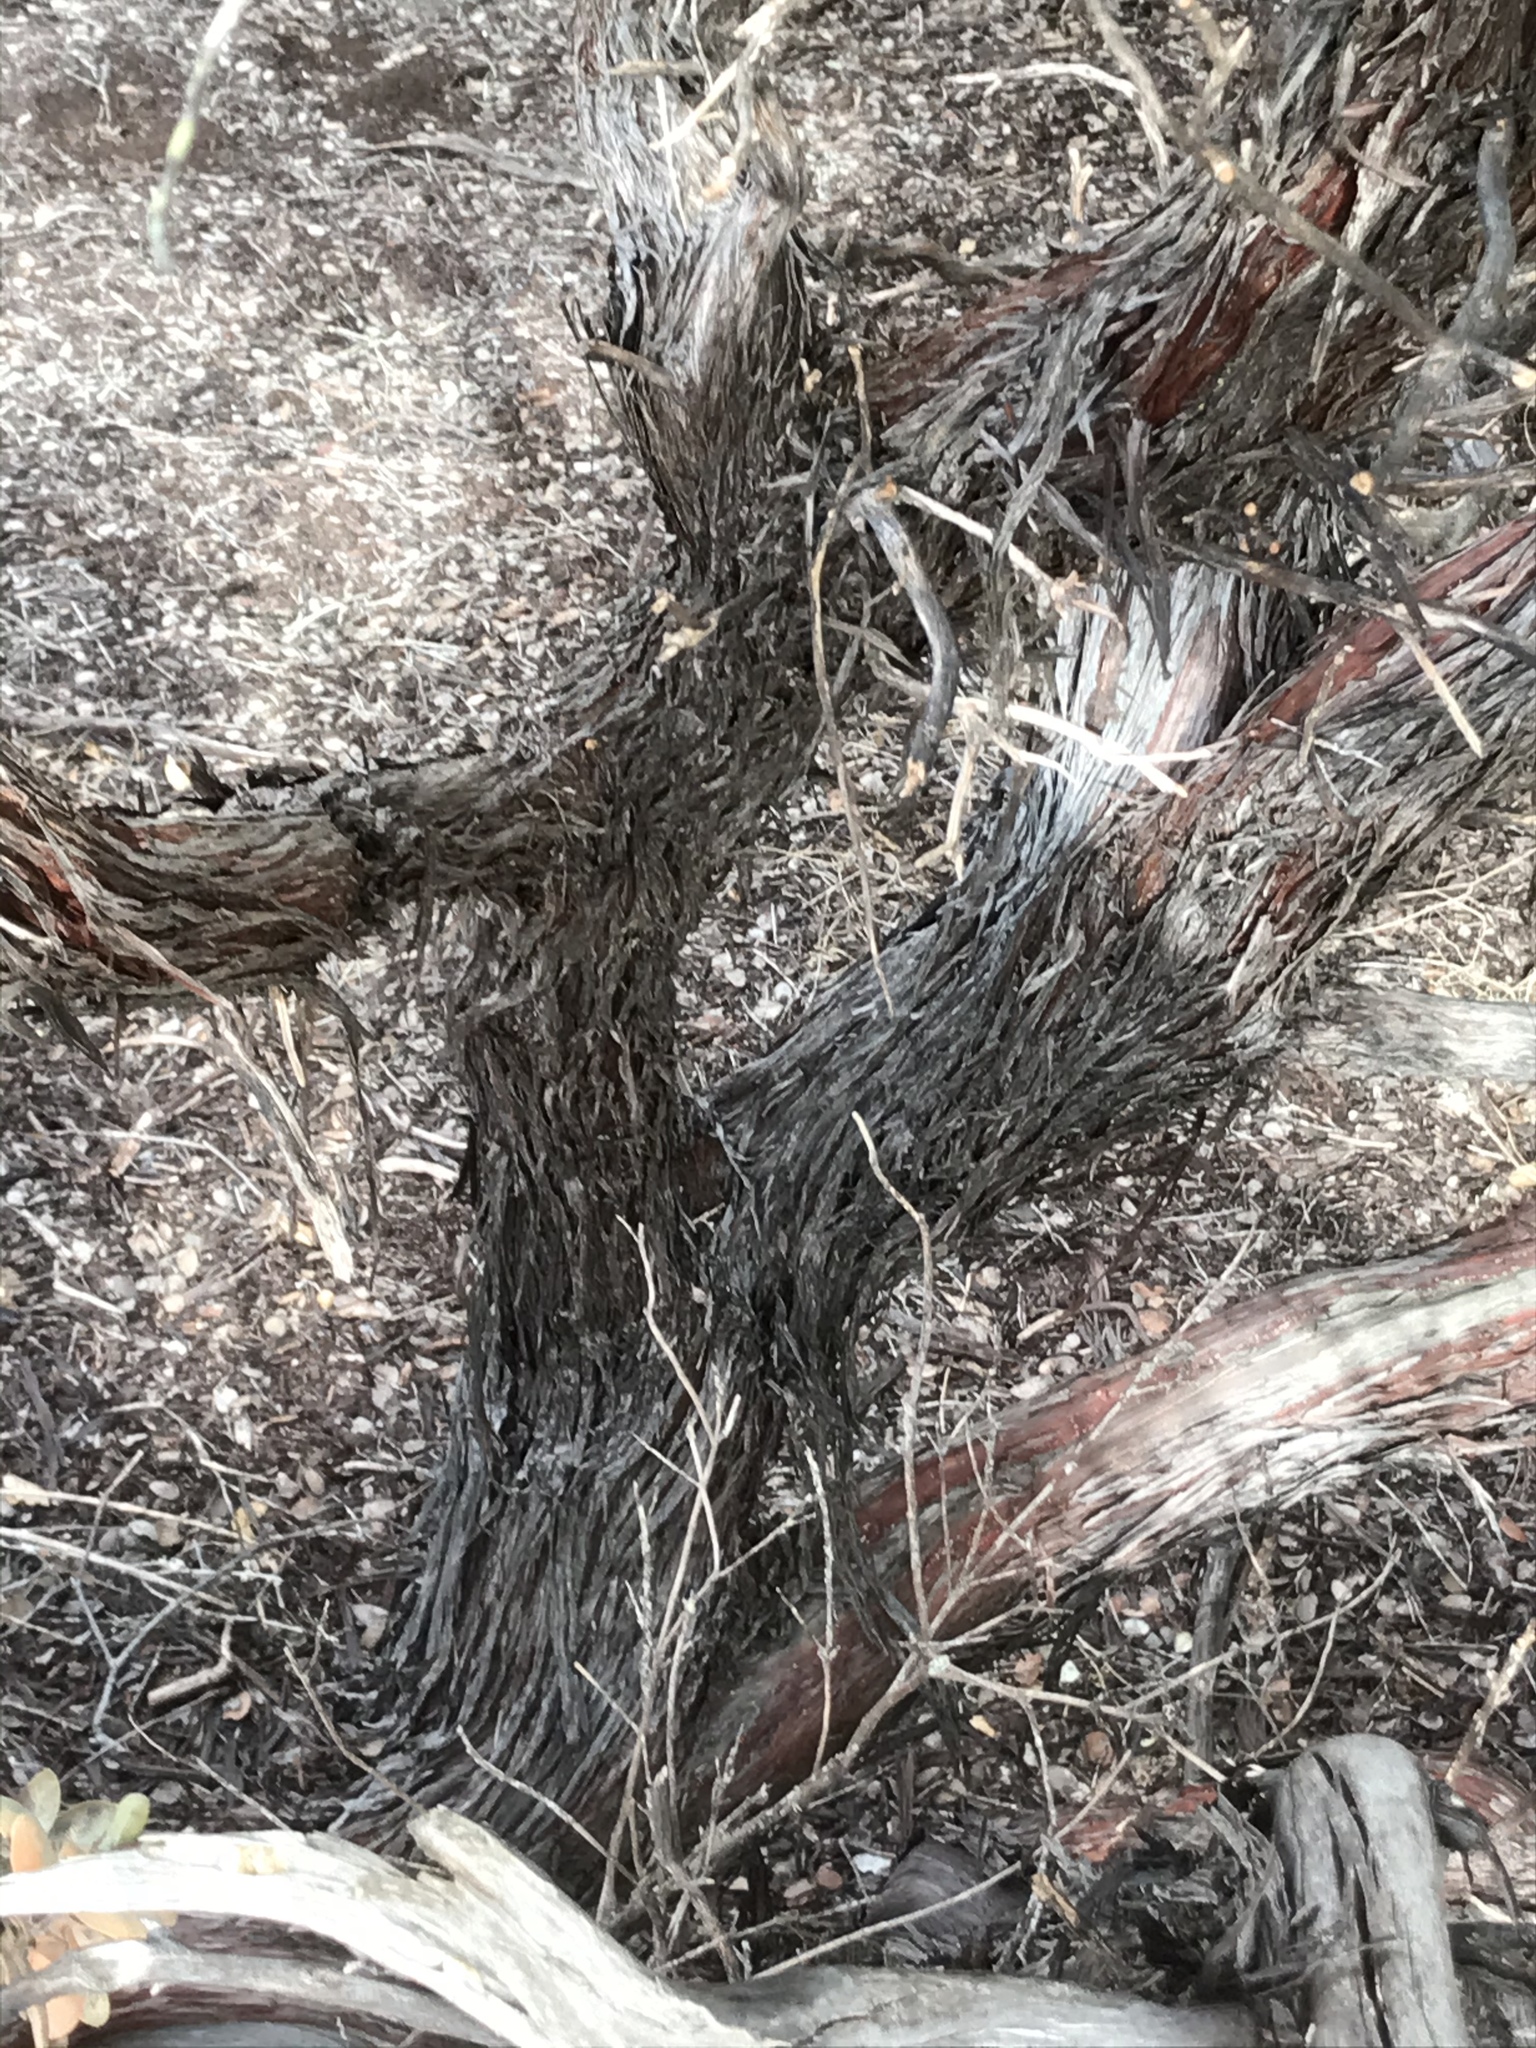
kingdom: Plantae
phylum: Tracheophyta
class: Magnoliopsida
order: Ericales
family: Ericaceae
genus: Arctostaphylos
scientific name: Arctostaphylos morroensis
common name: Morro manzanita
